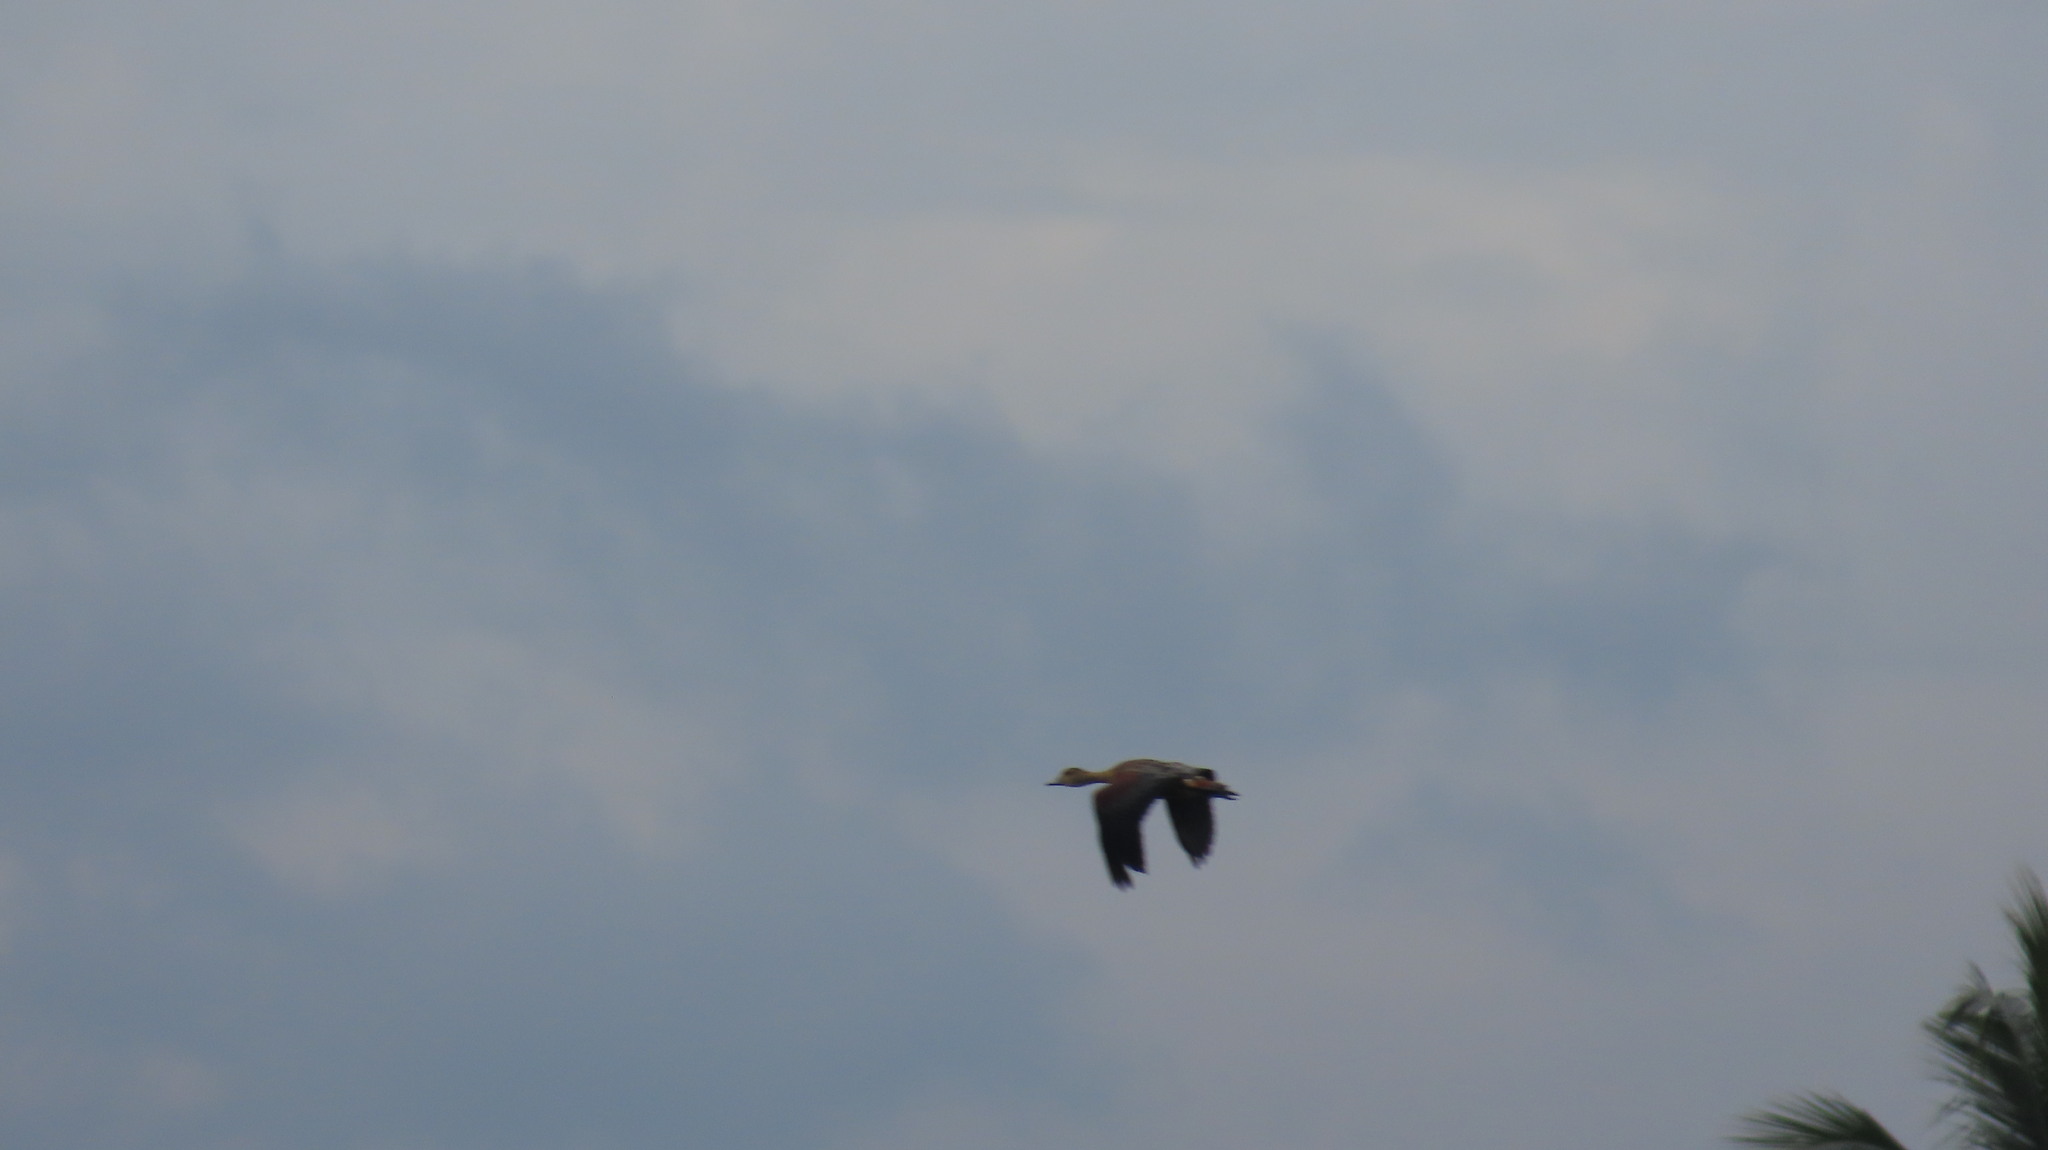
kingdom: Animalia
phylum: Chordata
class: Aves
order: Anseriformes
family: Anatidae
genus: Dendrocygna
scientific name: Dendrocygna javanica
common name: Lesser whistling-duck
